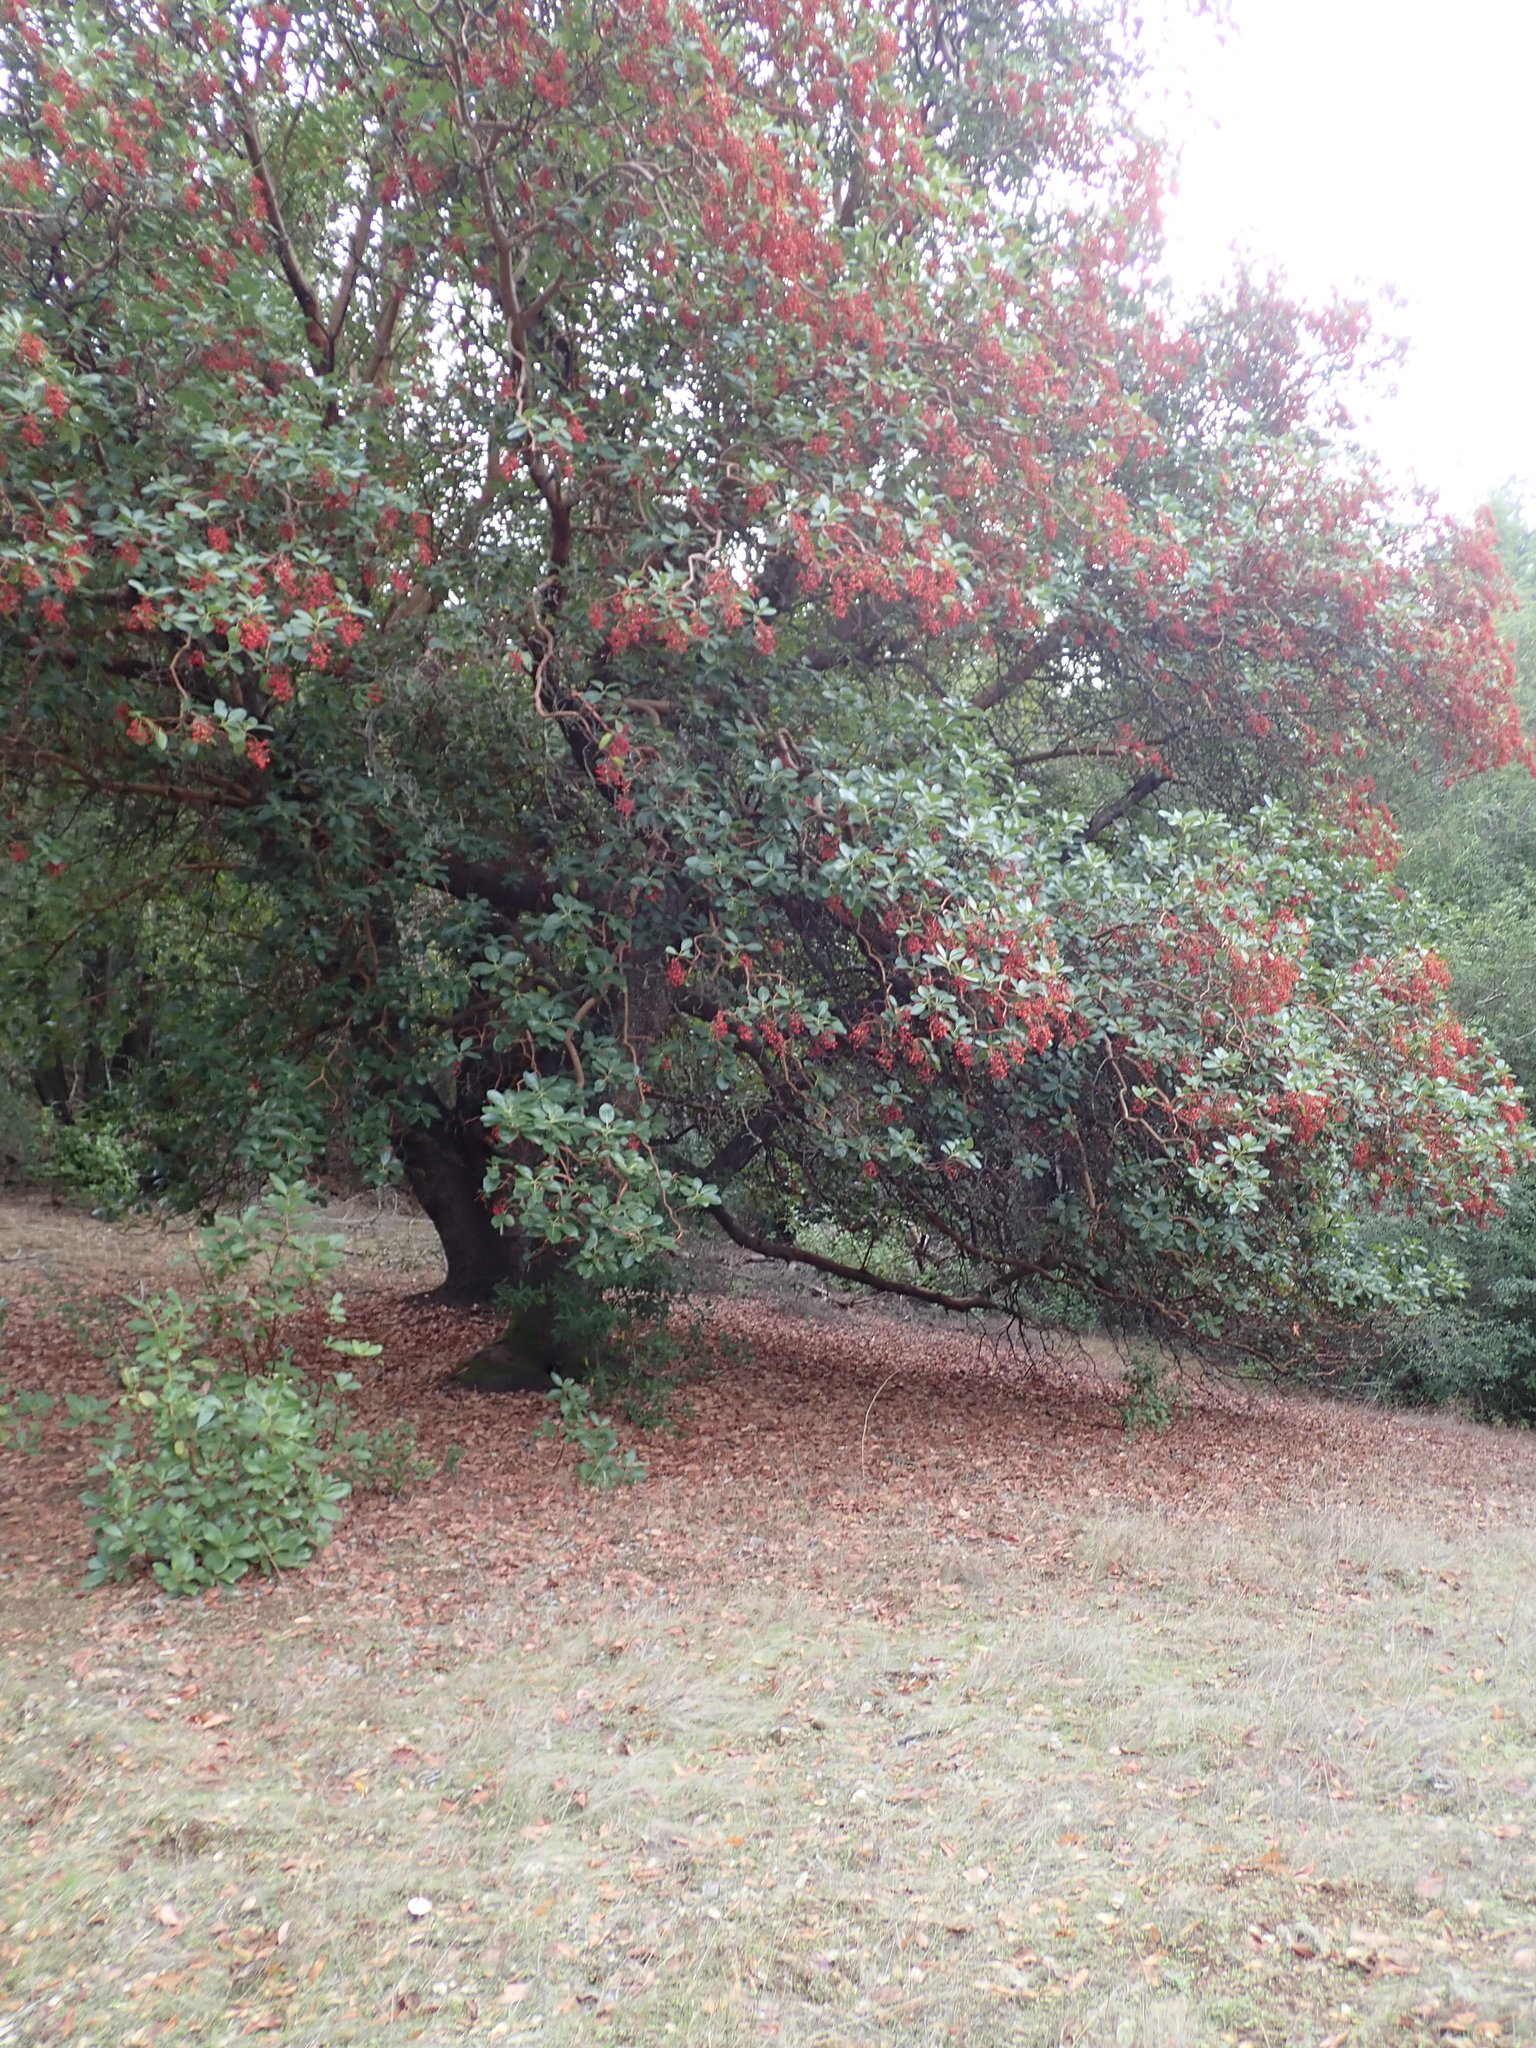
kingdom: Plantae
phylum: Tracheophyta
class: Magnoliopsida
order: Ericales
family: Ericaceae
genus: Arbutus
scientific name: Arbutus menziesii
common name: Pacific madrone
